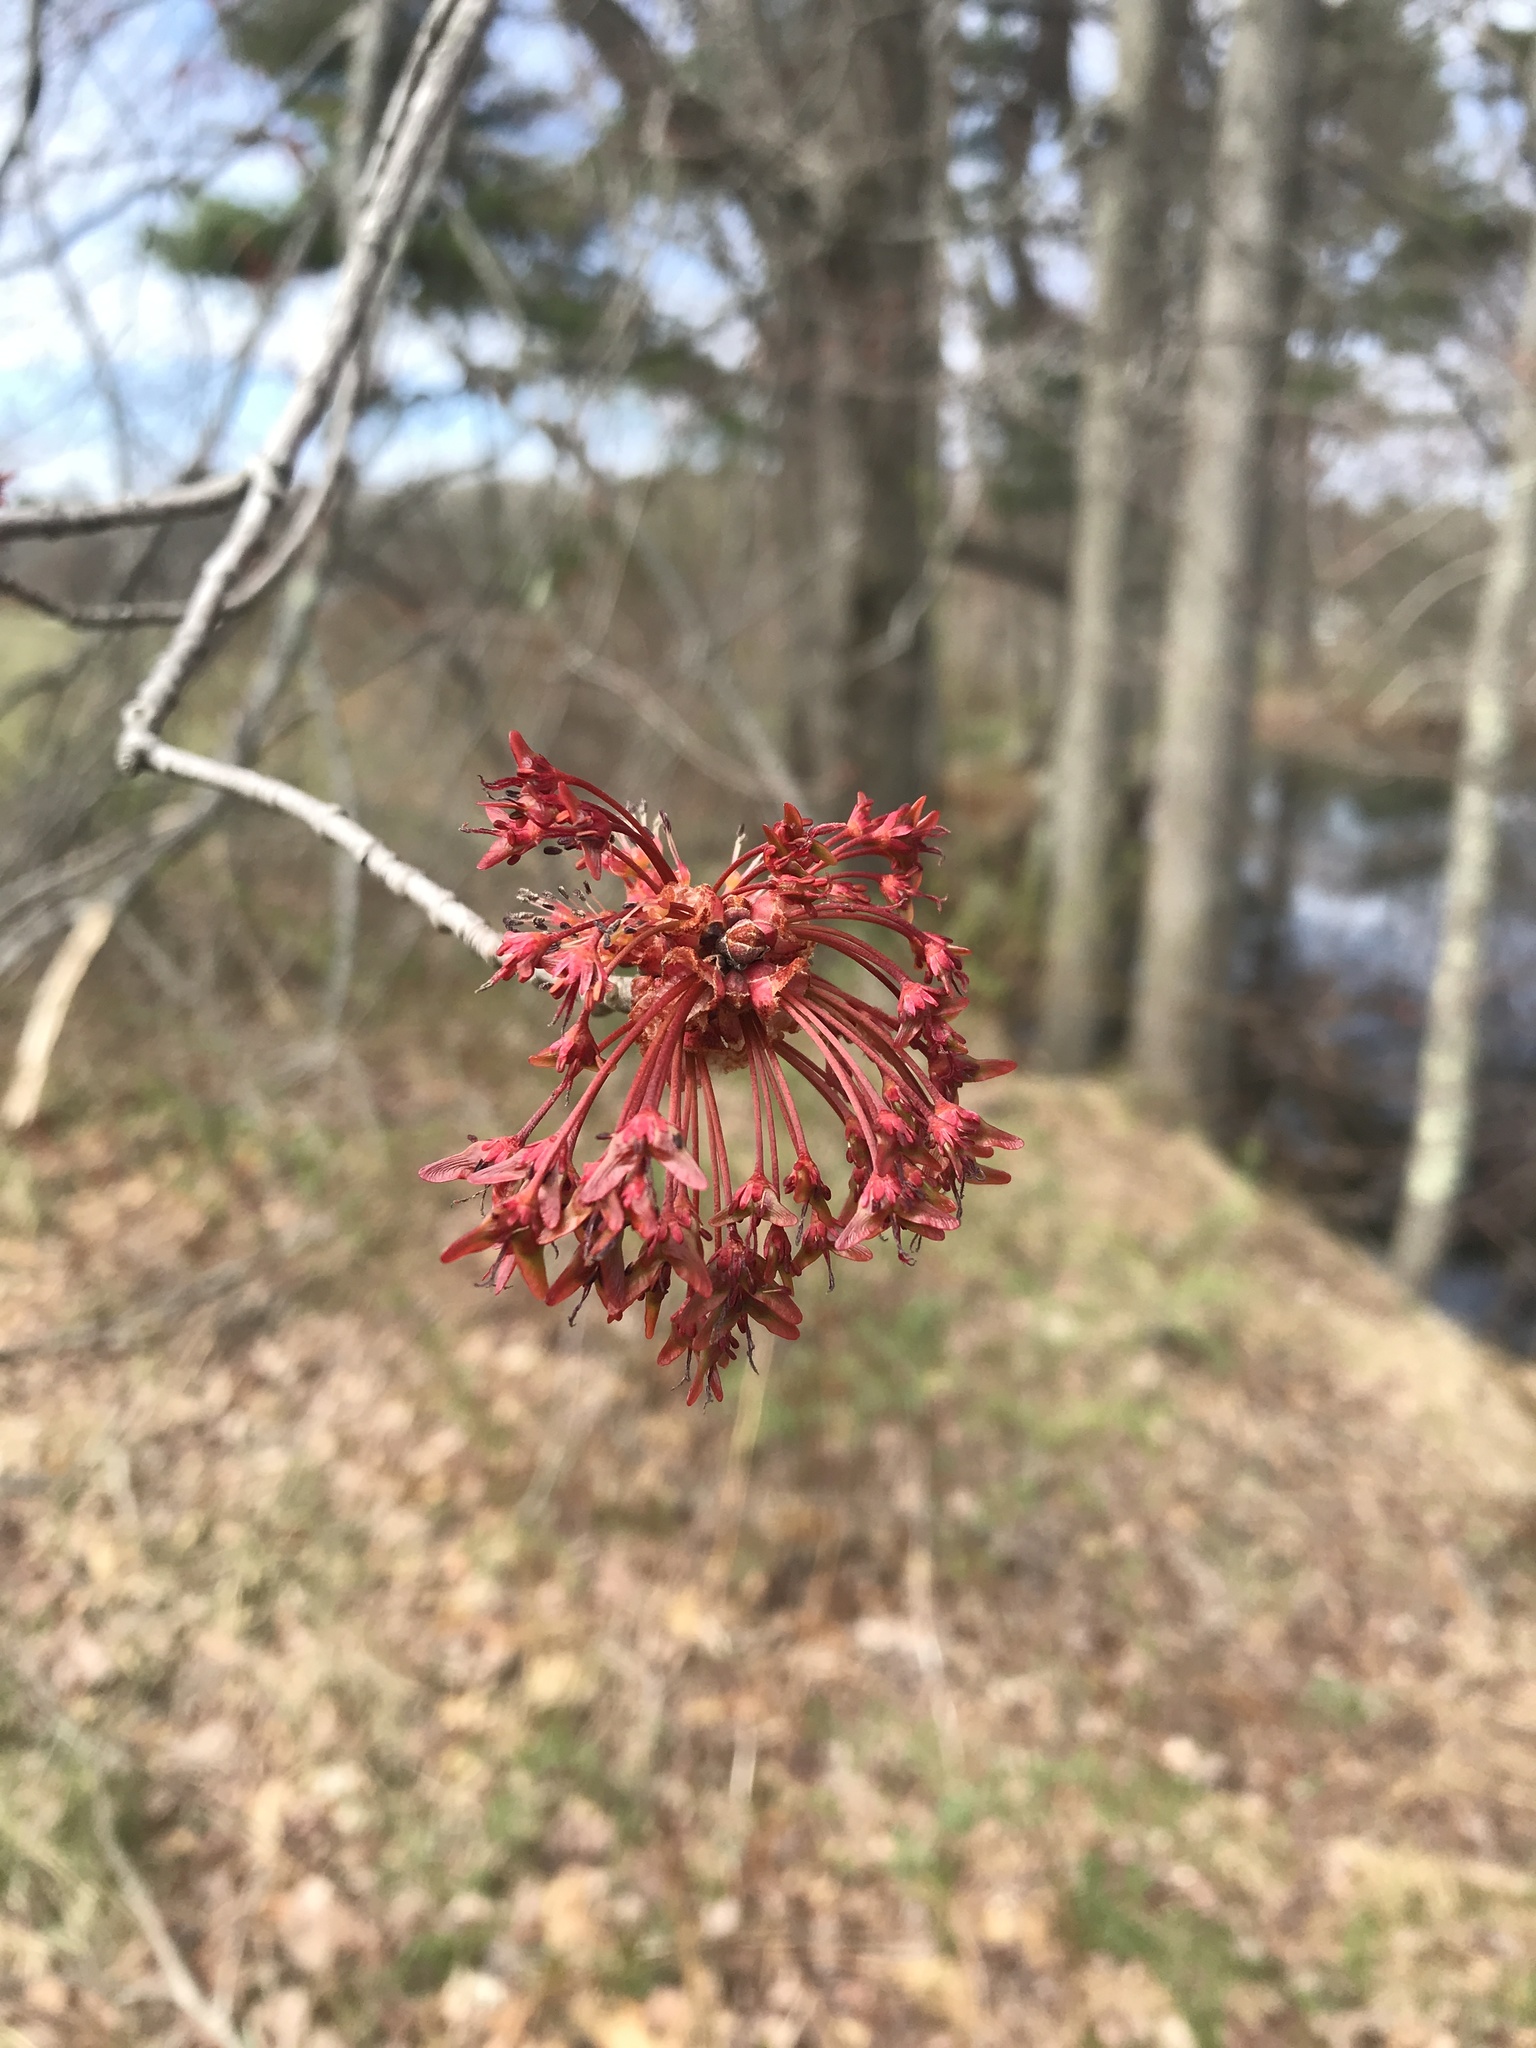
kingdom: Plantae
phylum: Tracheophyta
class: Magnoliopsida
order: Sapindales
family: Sapindaceae
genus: Acer
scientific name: Acer rubrum
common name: Red maple
